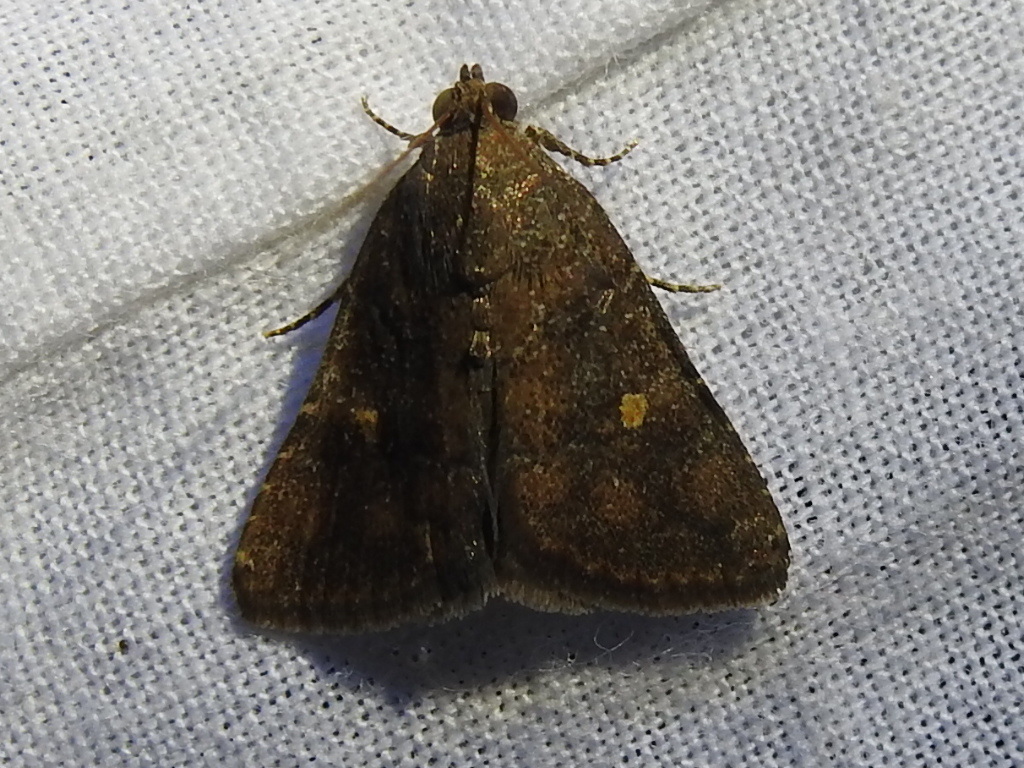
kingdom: Animalia
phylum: Arthropoda
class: Insecta
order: Lepidoptera
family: Noctuidae
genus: Amyna
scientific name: Amyna stricta
